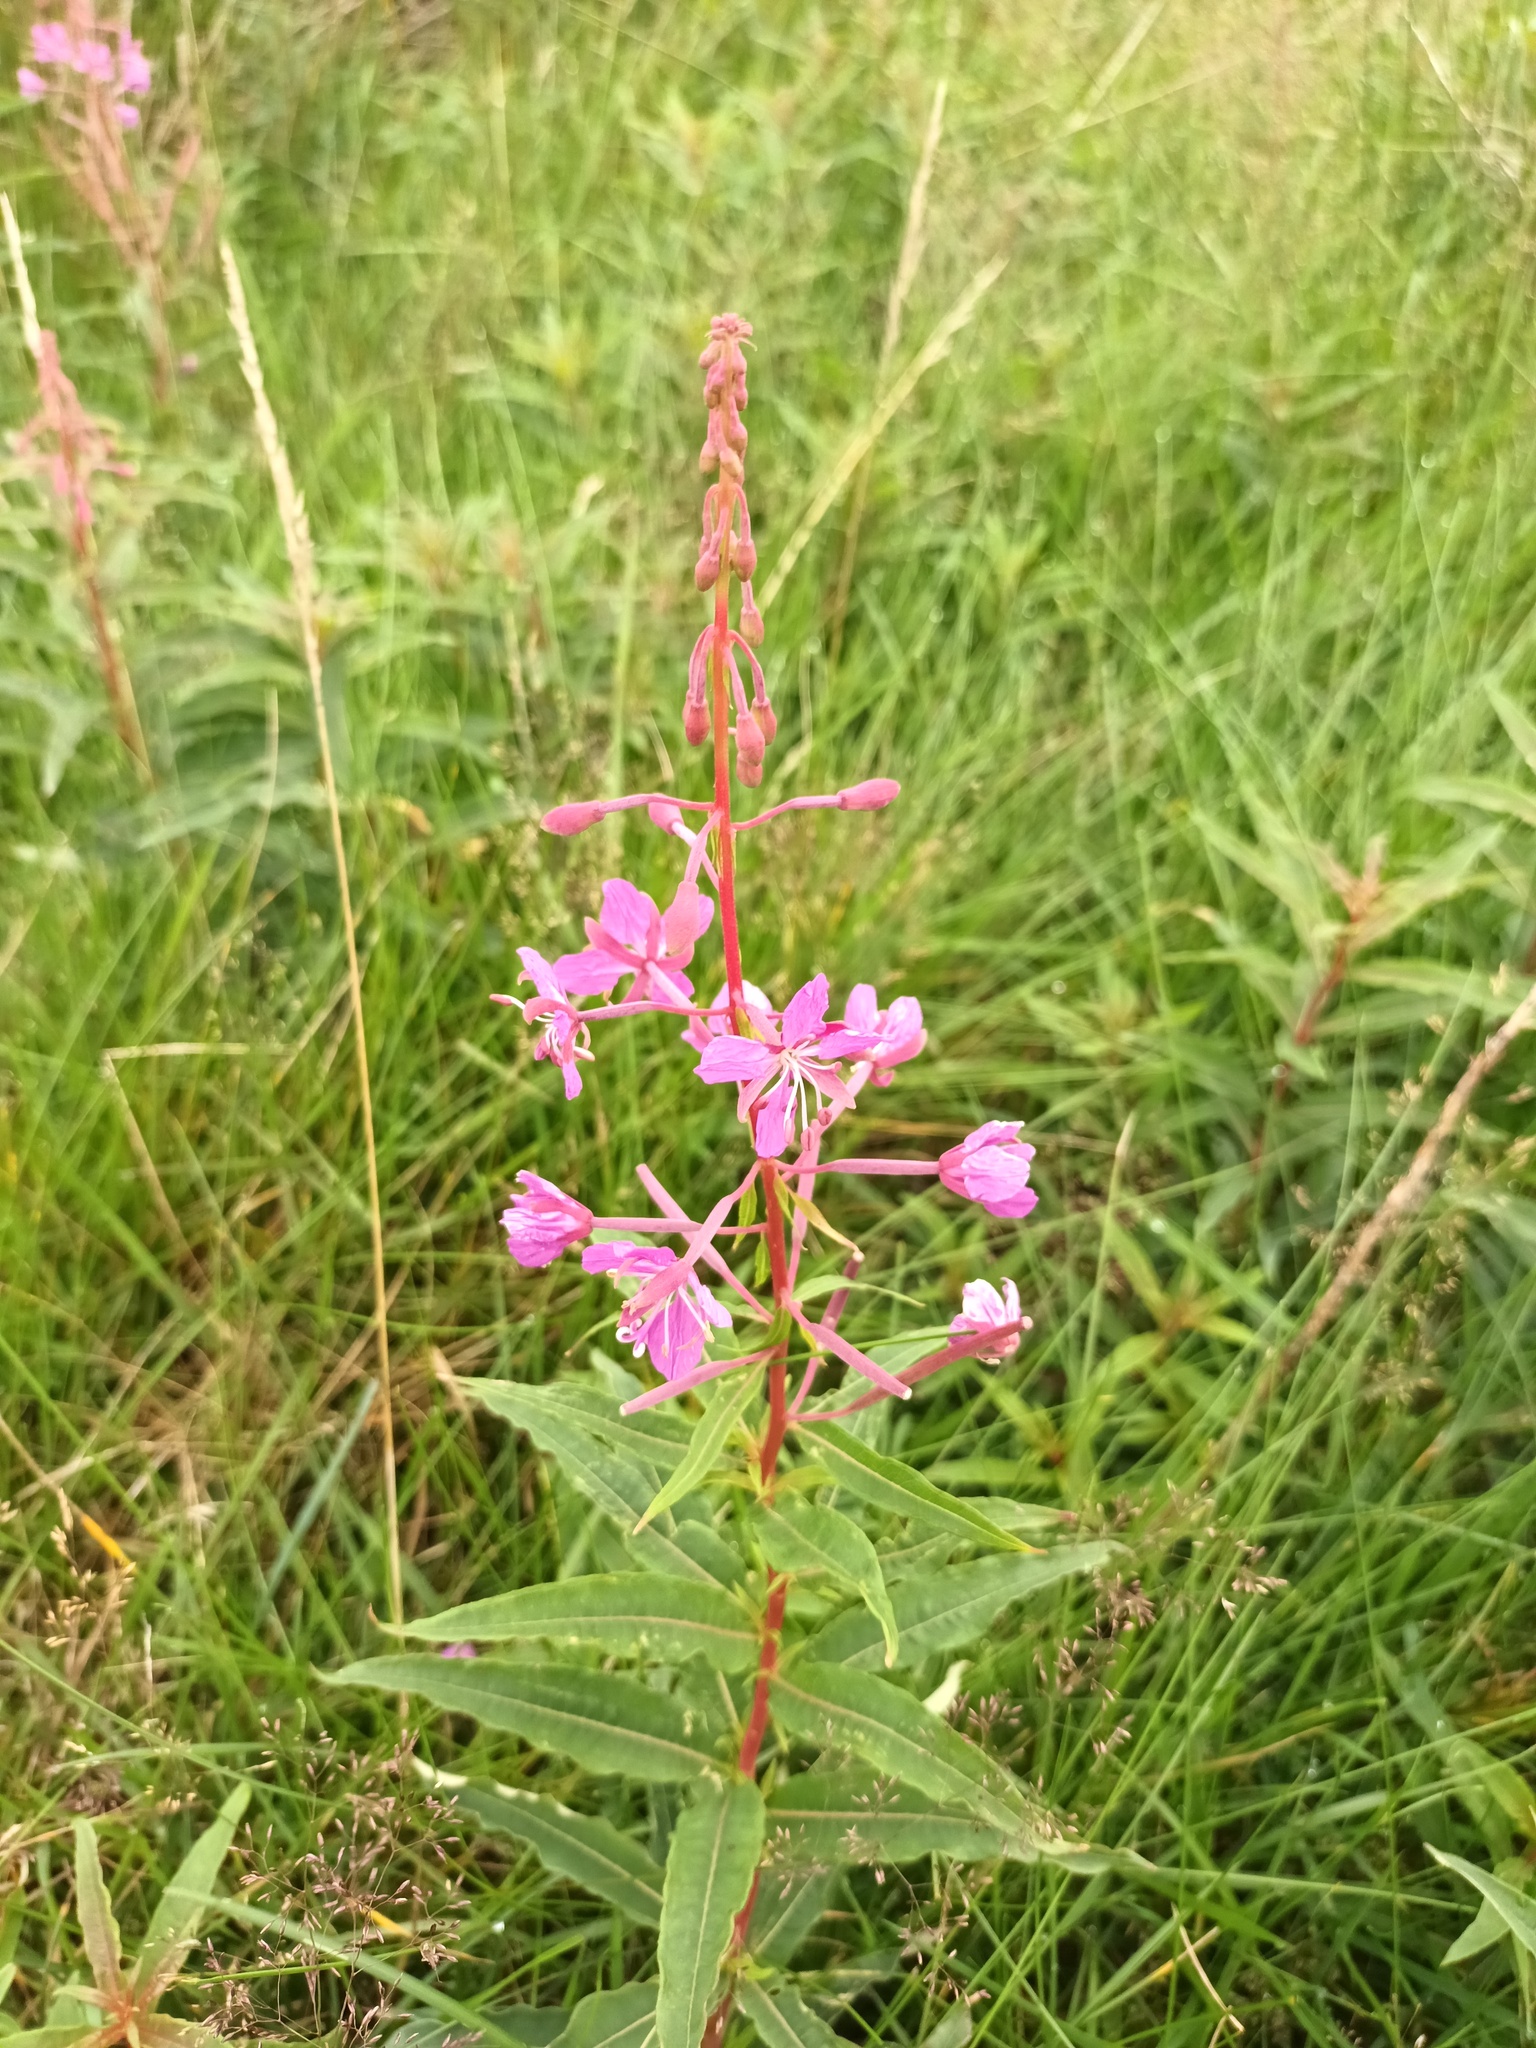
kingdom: Plantae
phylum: Tracheophyta
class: Magnoliopsida
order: Myrtales
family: Onagraceae
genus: Chamaenerion
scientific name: Chamaenerion angustifolium
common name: Fireweed
